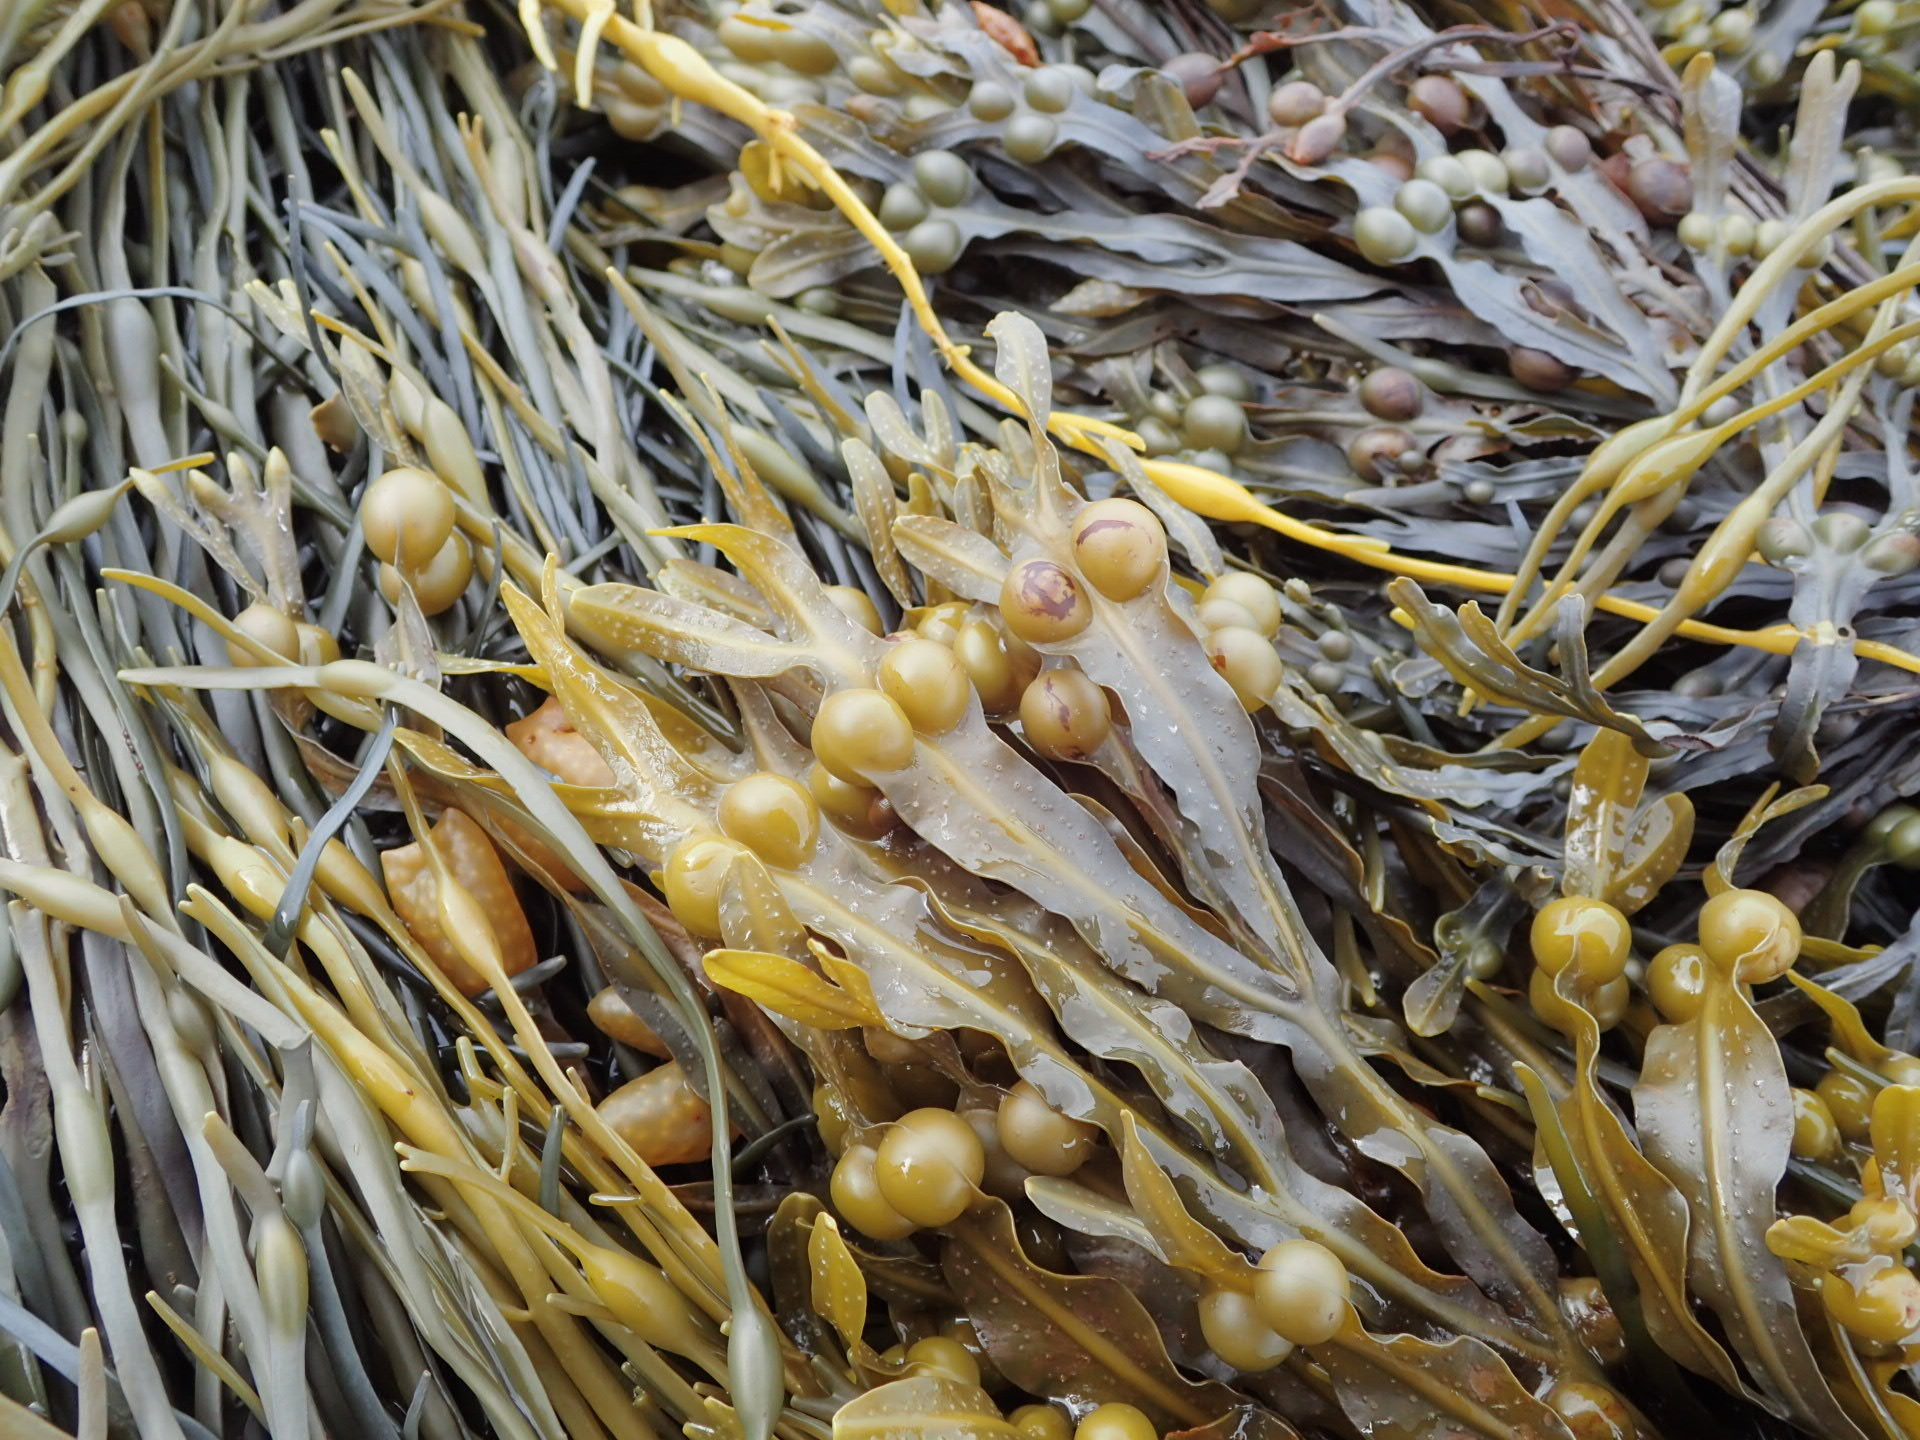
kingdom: Chromista
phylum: Ochrophyta
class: Phaeophyceae
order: Fucales
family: Fucaceae
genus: Fucus
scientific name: Fucus vesiculosus
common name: Bladder wrack
